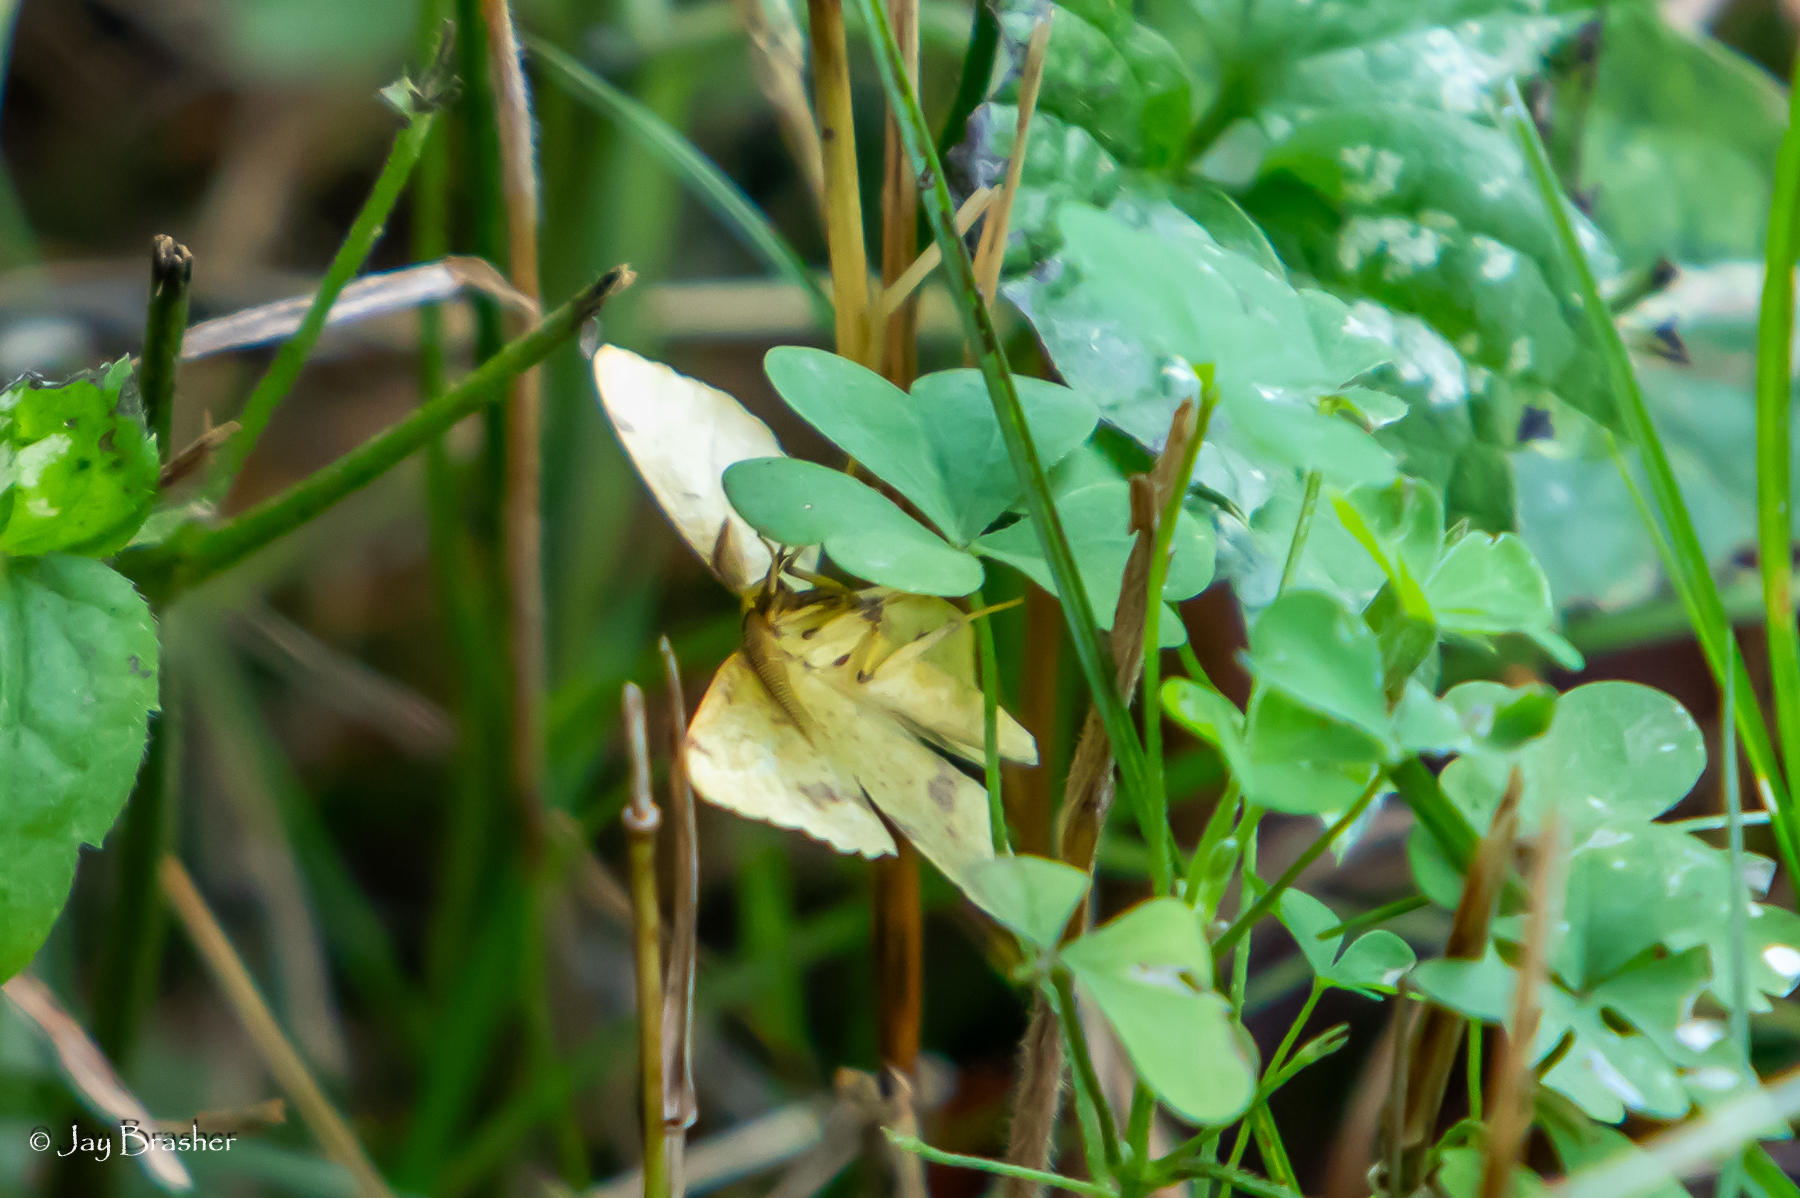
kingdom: Animalia
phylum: Arthropoda
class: Insecta
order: Lepidoptera
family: Geometridae
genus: Xanthotype
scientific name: Xanthotype
